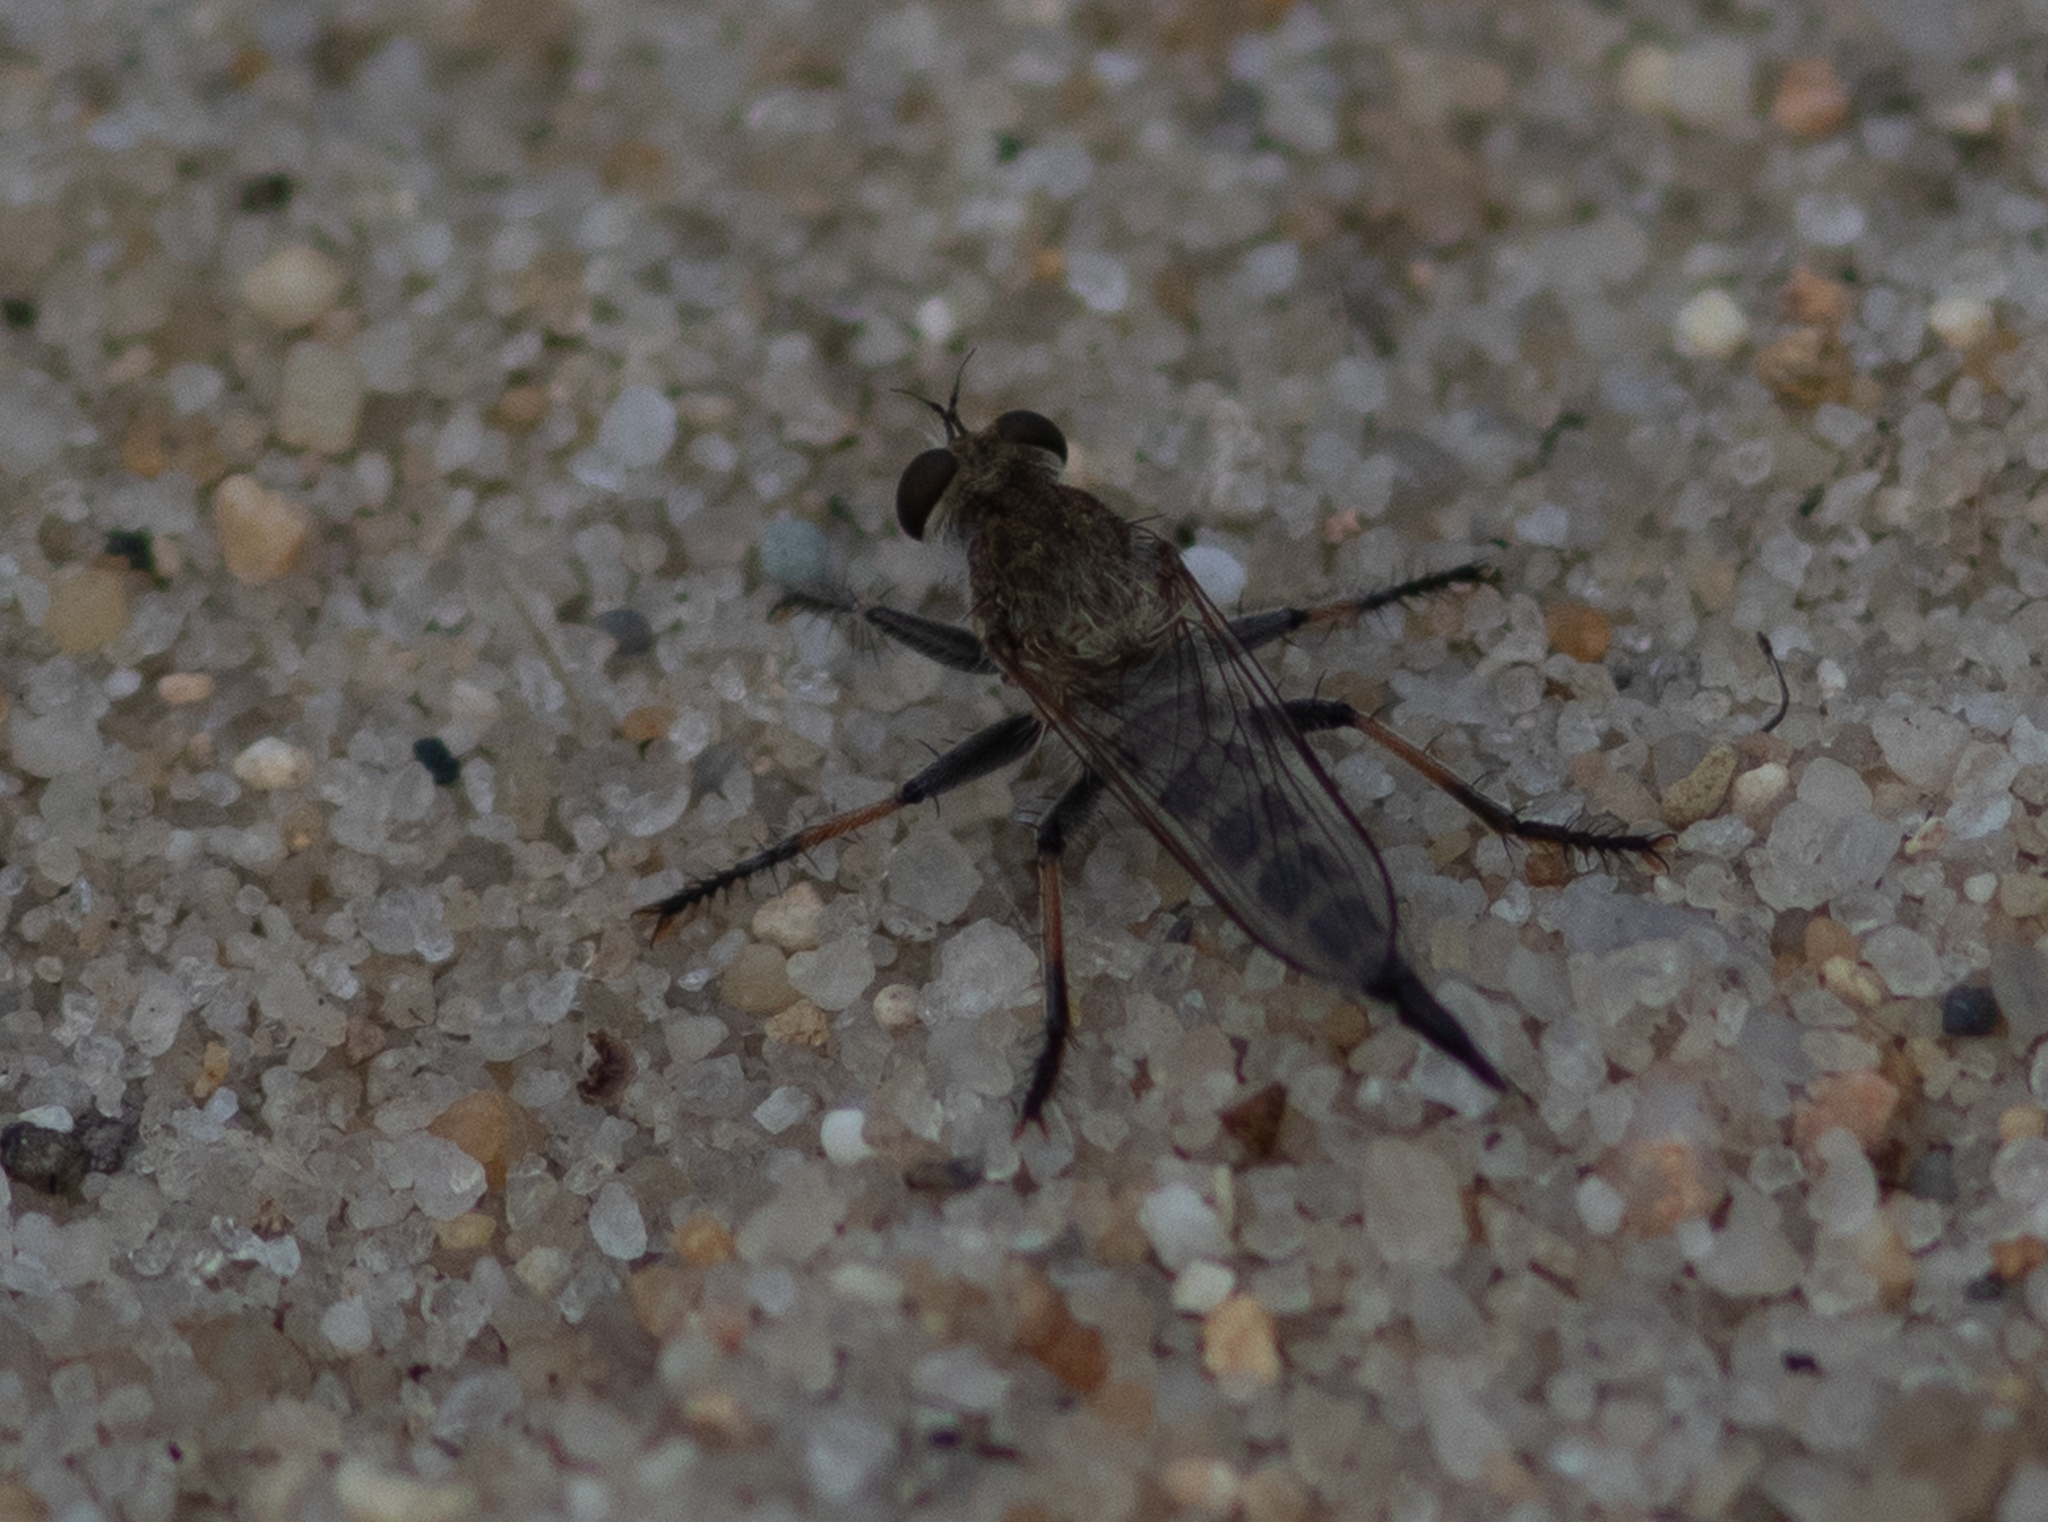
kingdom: Animalia
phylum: Arthropoda
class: Insecta
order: Diptera
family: Asilidae
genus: Efferia
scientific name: Efferia albibarbis
